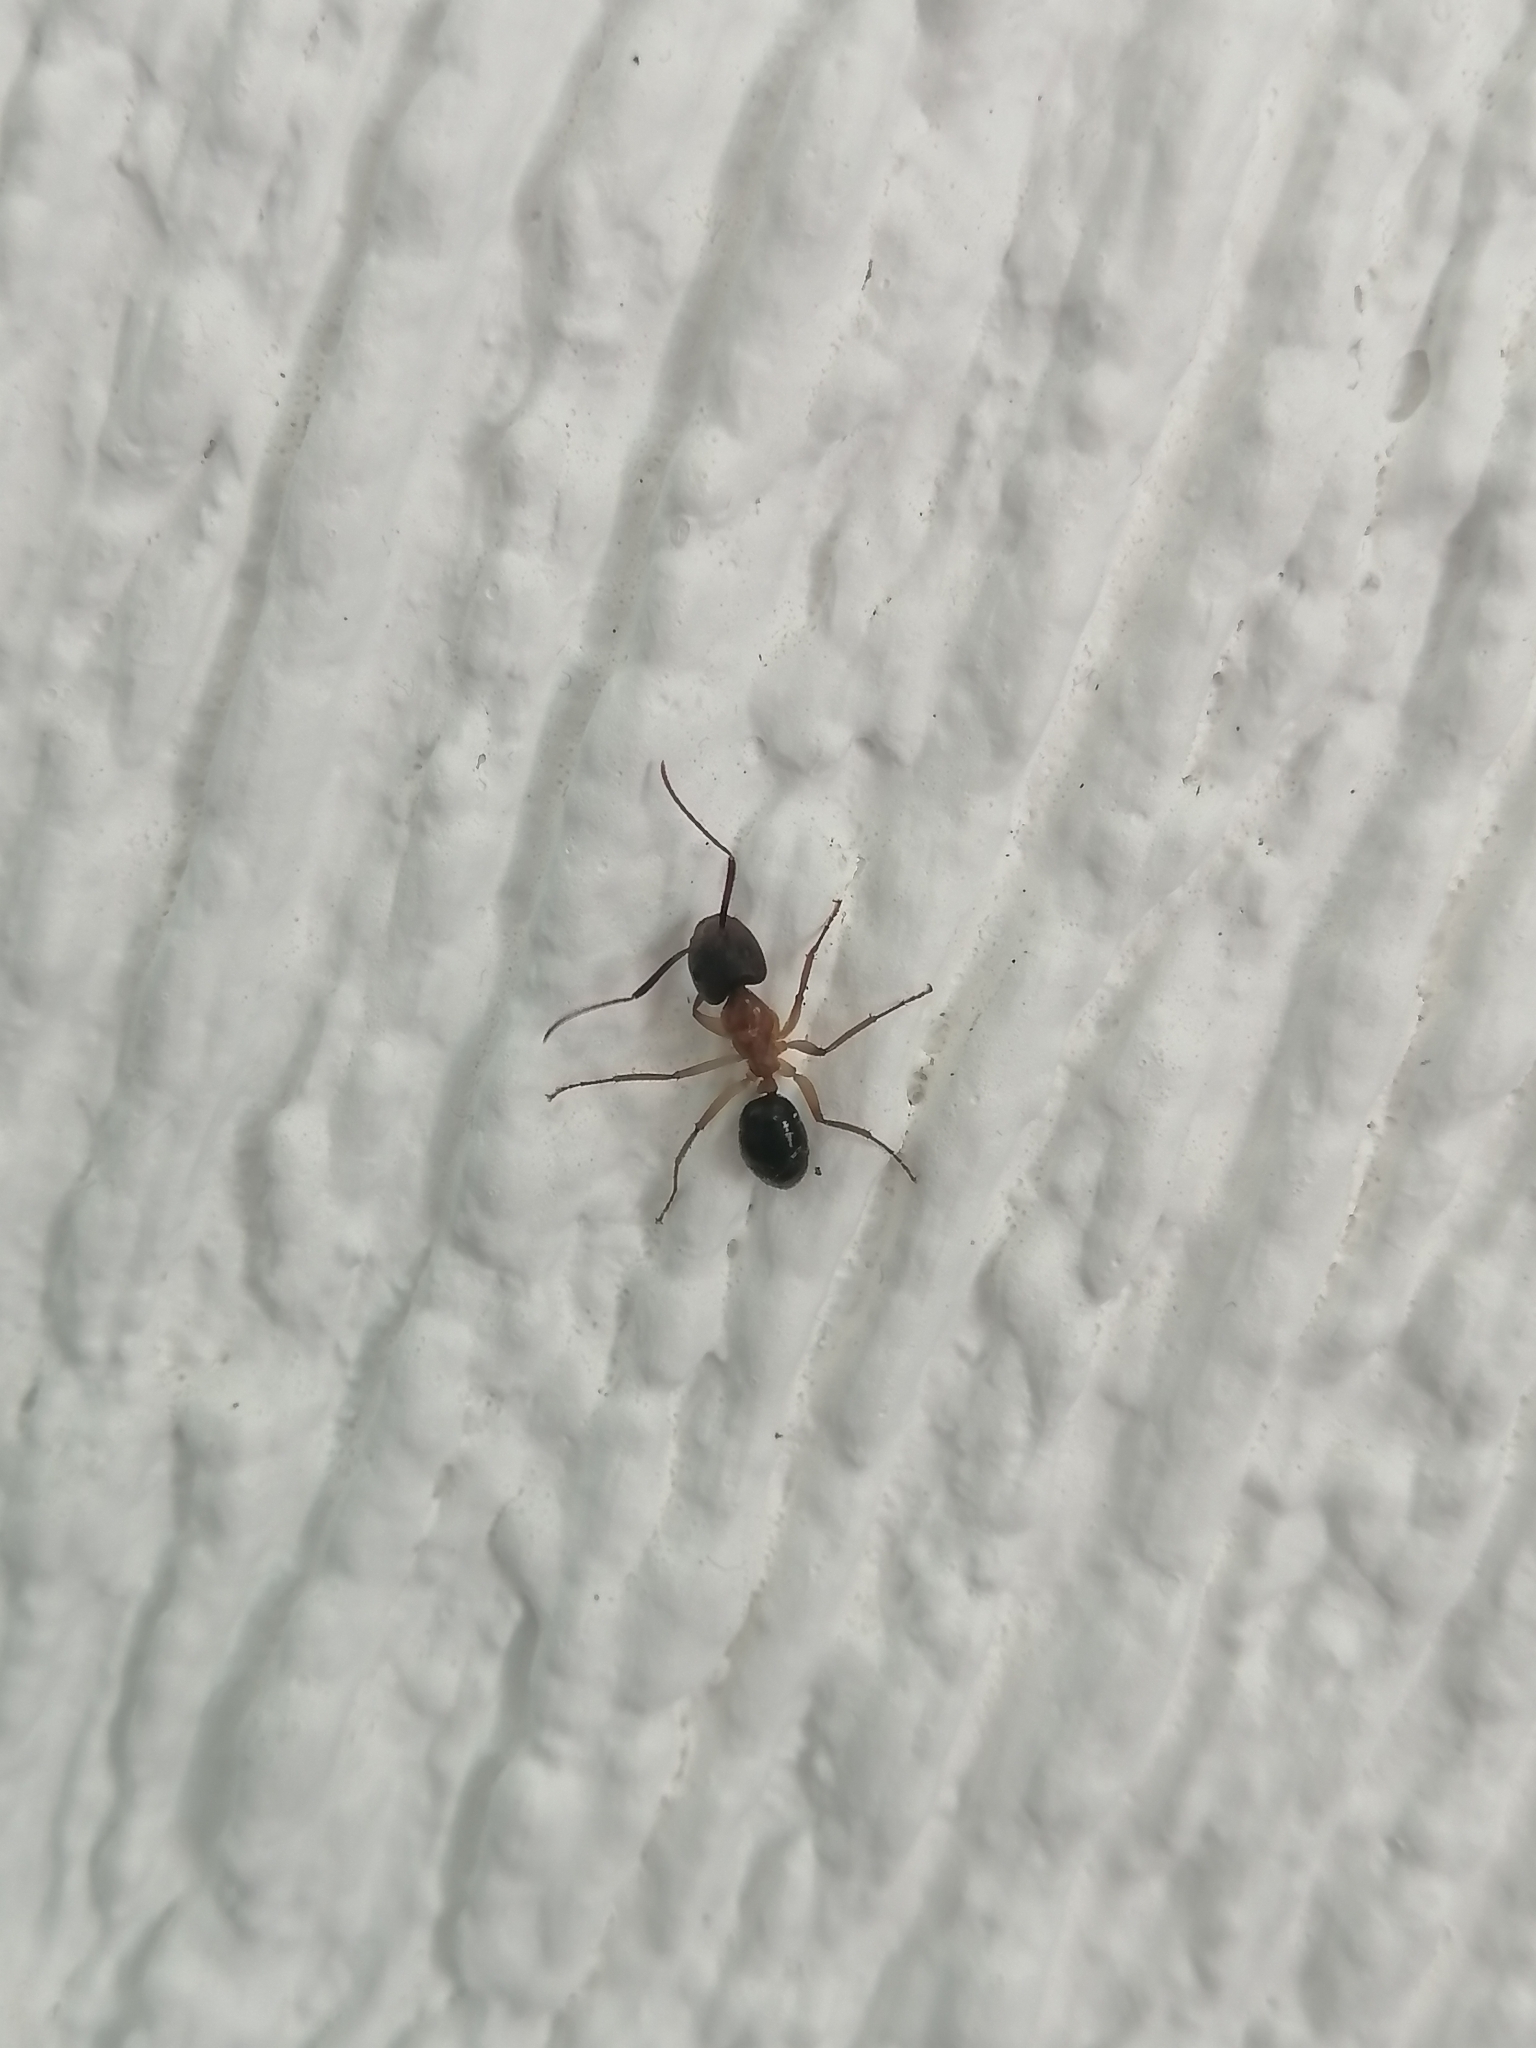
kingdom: Animalia
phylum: Arthropoda
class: Insecta
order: Hymenoptera
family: Formicidae
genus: Camponotus
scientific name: Camponotus atriceps
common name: Florida carpenter ant
